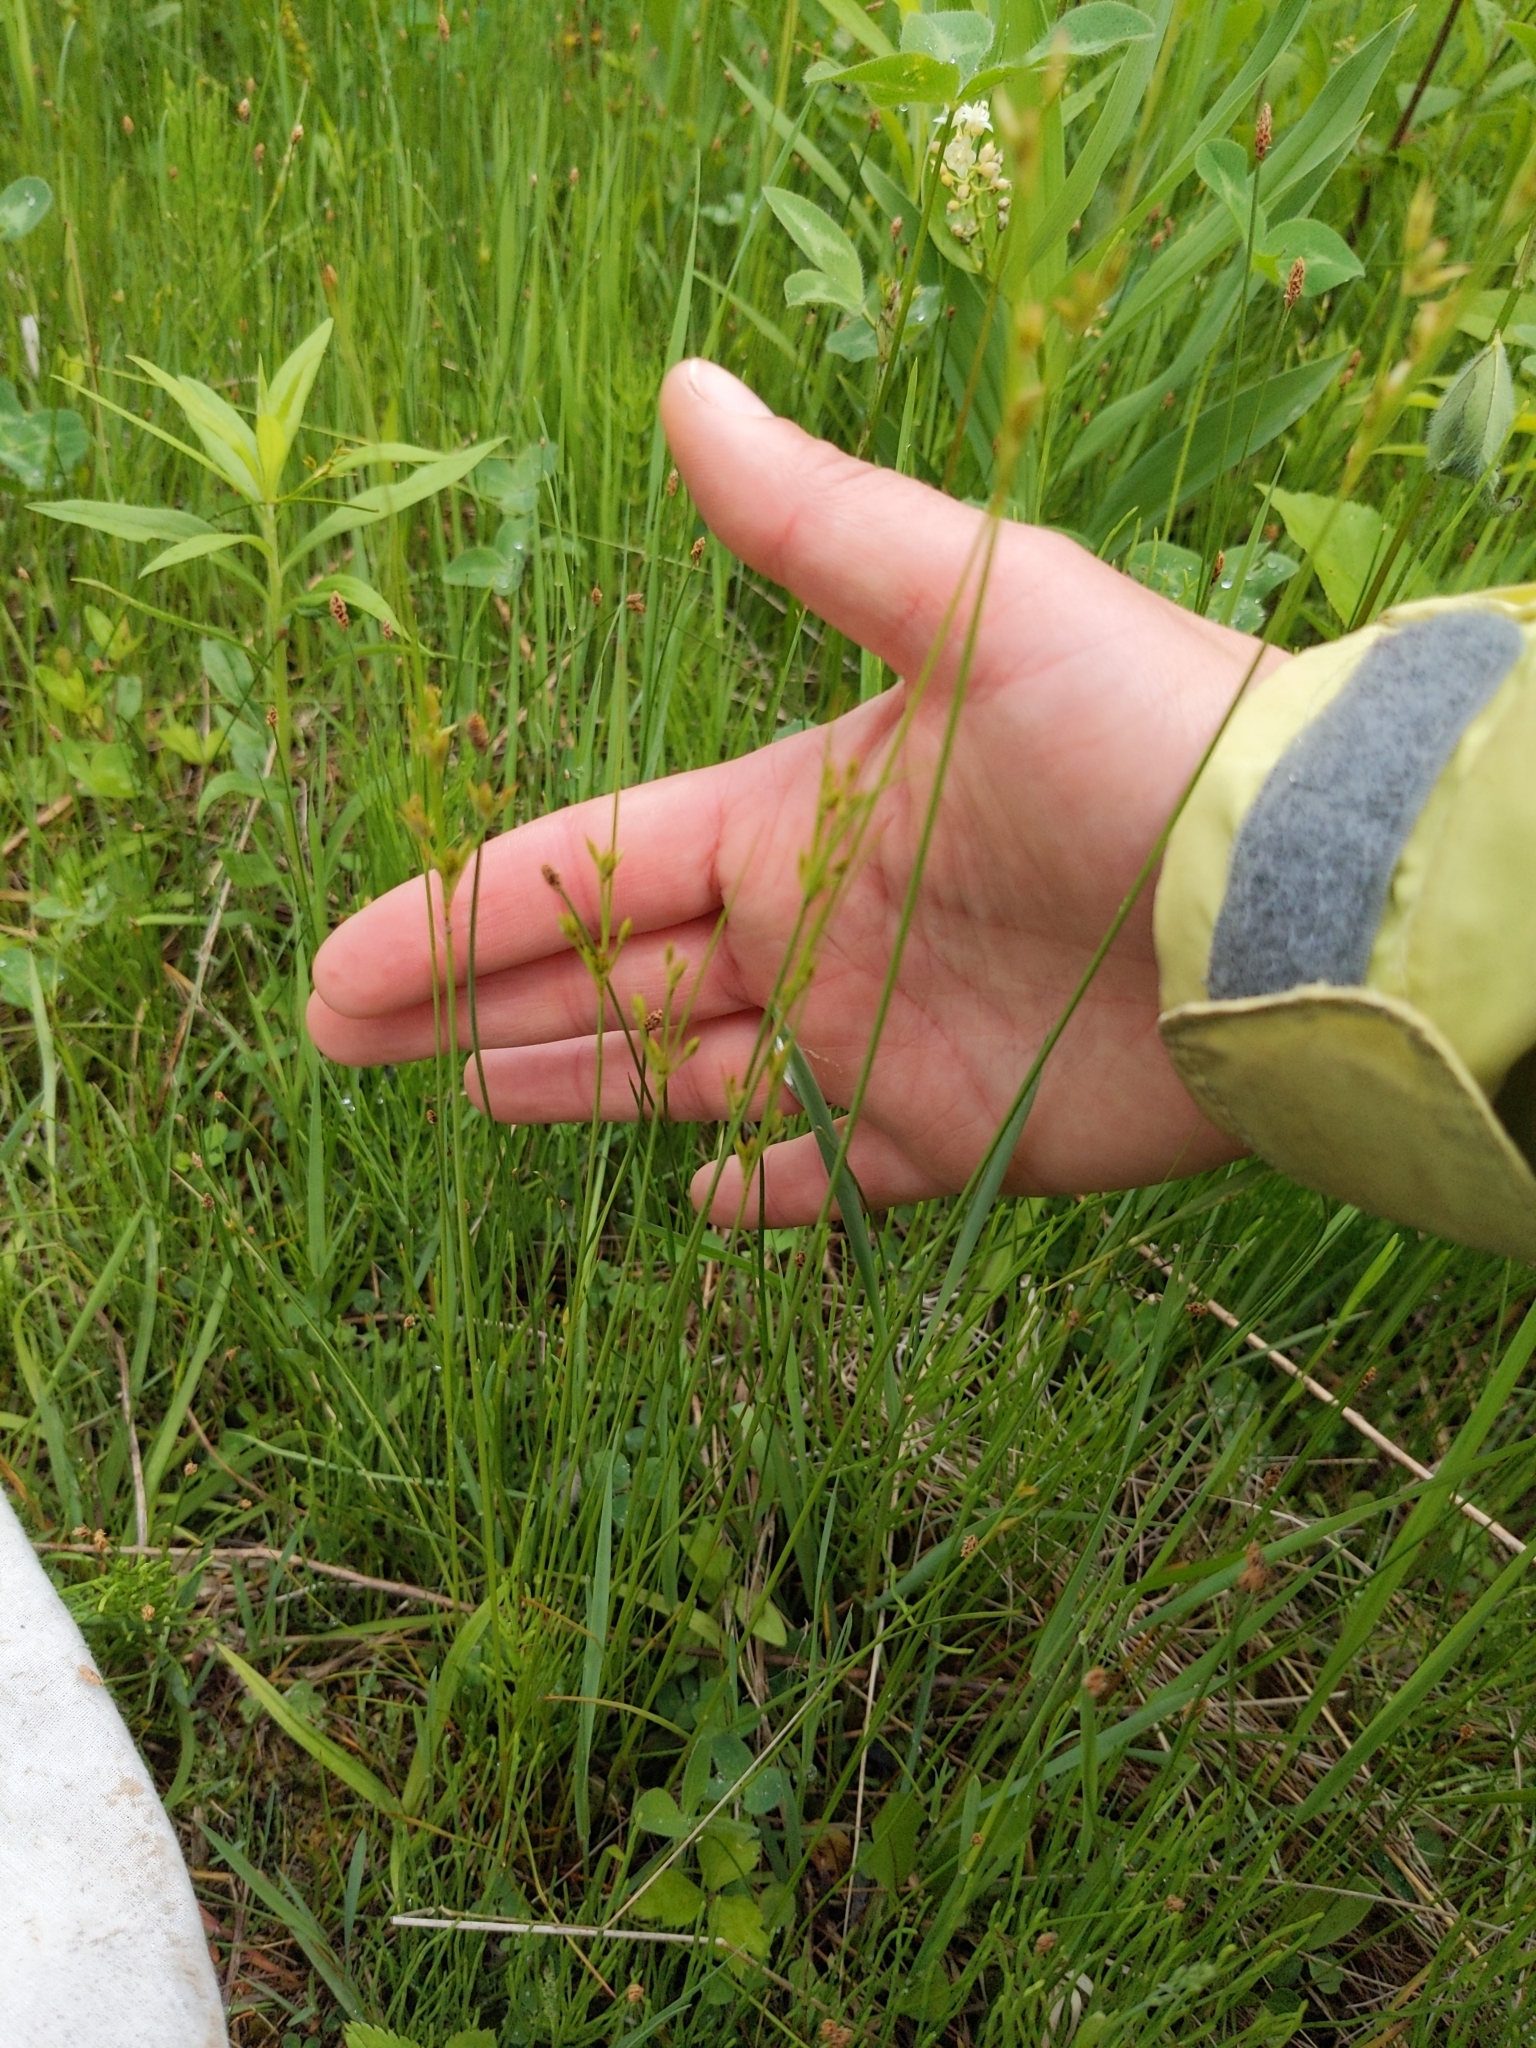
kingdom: Plantae
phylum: Tracheophyta
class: Liliopsida
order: Poales
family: Juncaceae
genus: Juncus
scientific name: Juncus dudleyi
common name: Dudley's rush
